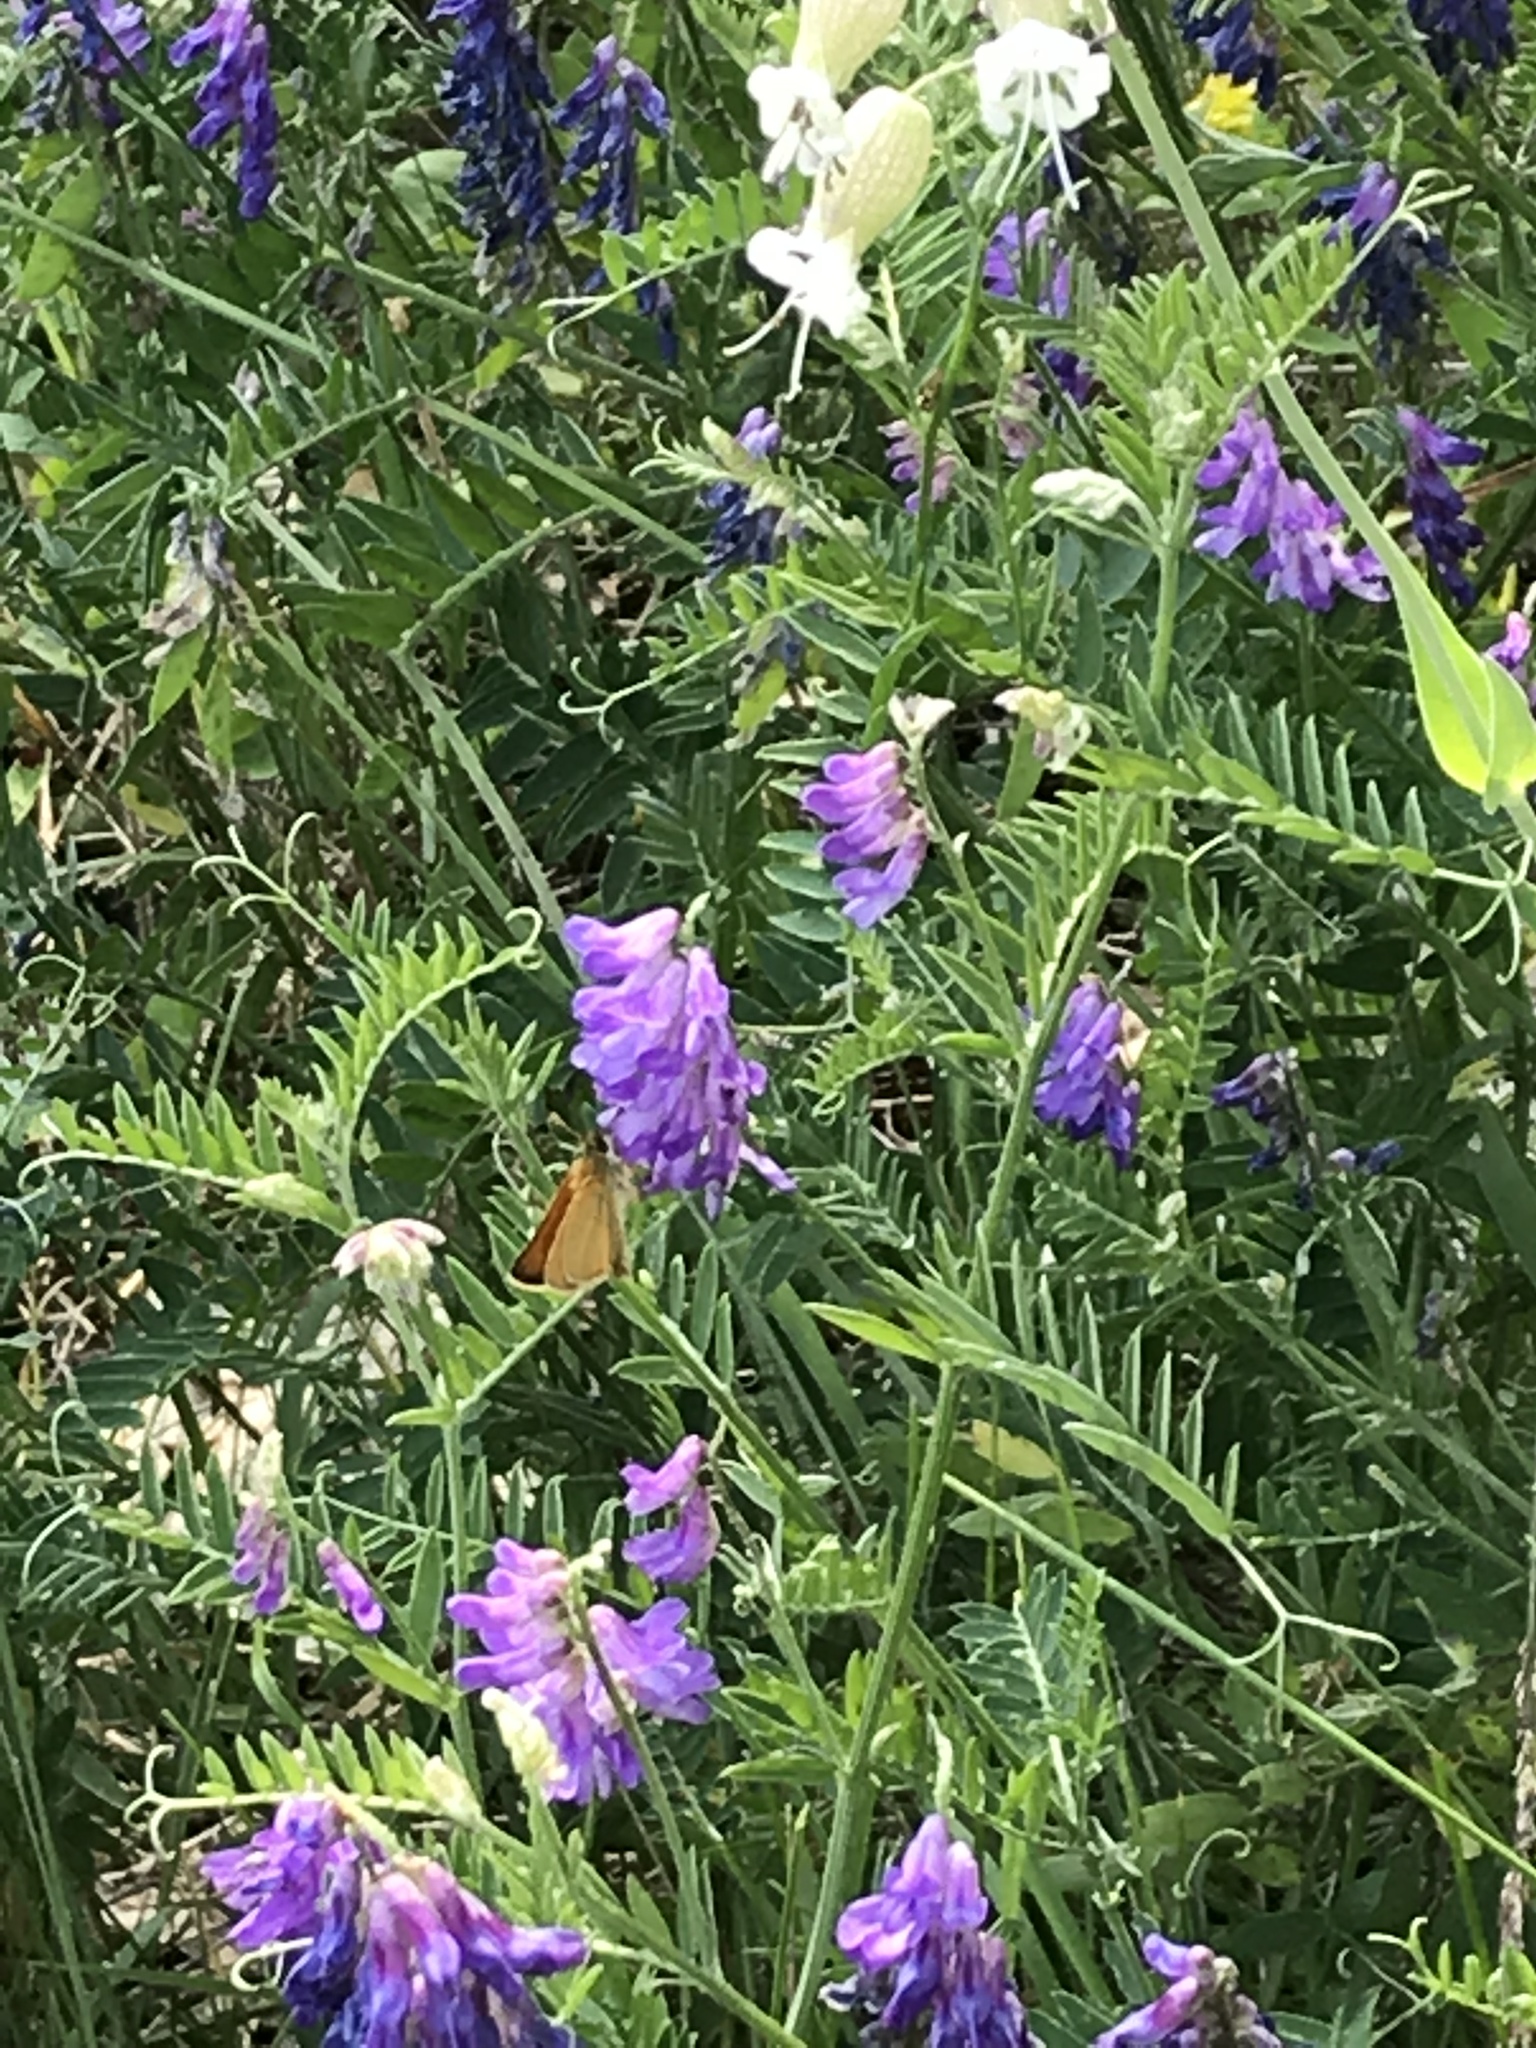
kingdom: Plantae
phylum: Tracheophyta
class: Magnoliopsida
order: Fabales
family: Fabaceae
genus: Vicia
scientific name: Vicia cracca
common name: Bird vetch
